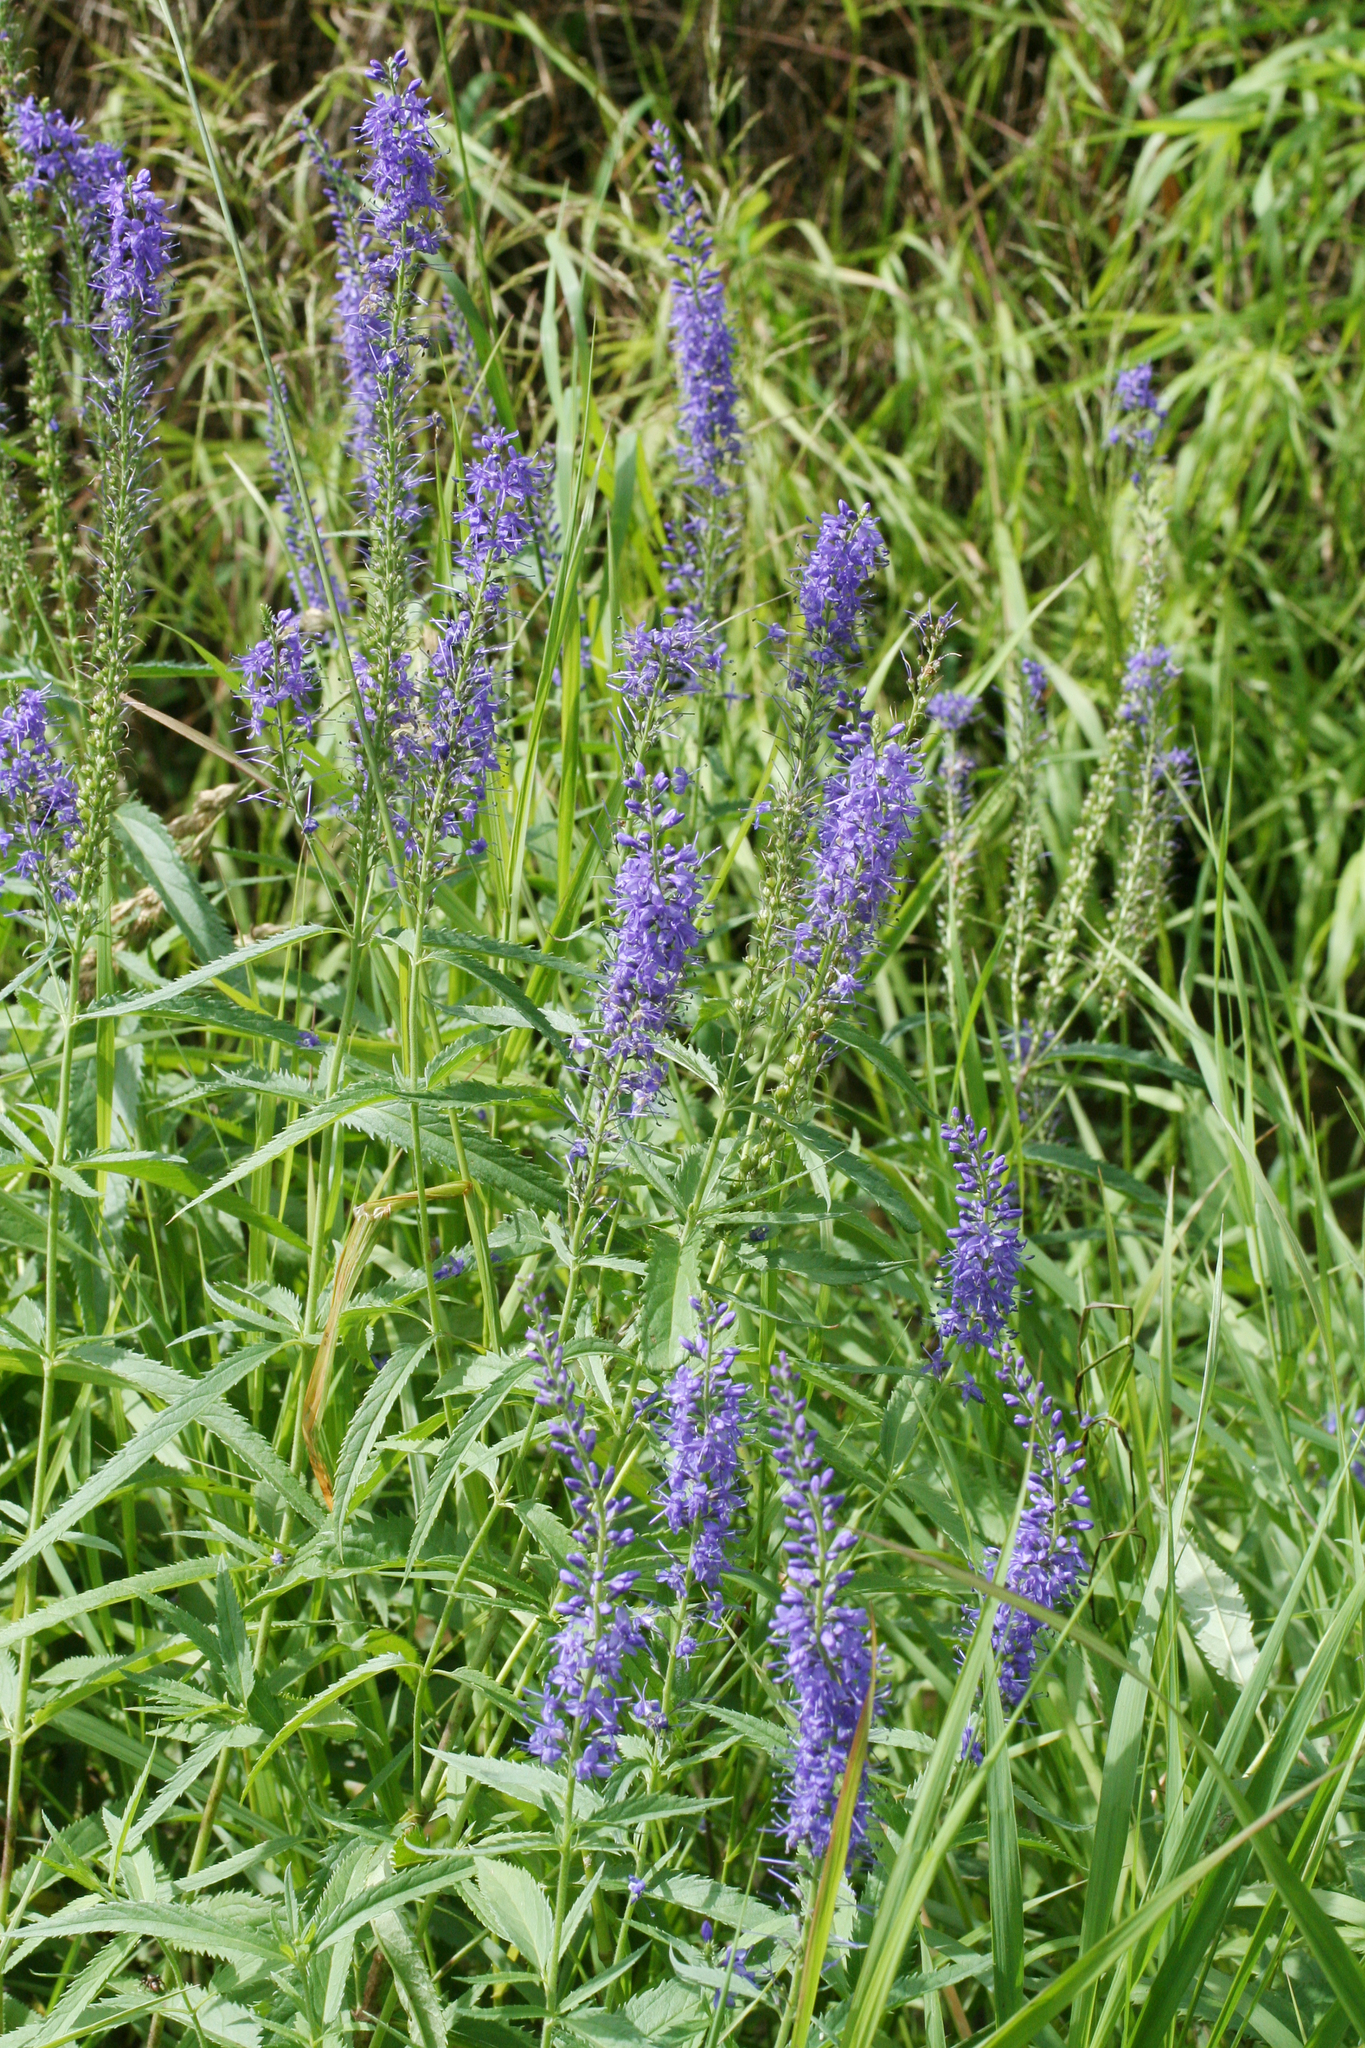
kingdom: Plantae
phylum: Tracheophyta
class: Magnoliopsida
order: Lamiales
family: Plantaginaceae
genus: Veronica
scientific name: Veronica longifolia
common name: Garden speedwell
